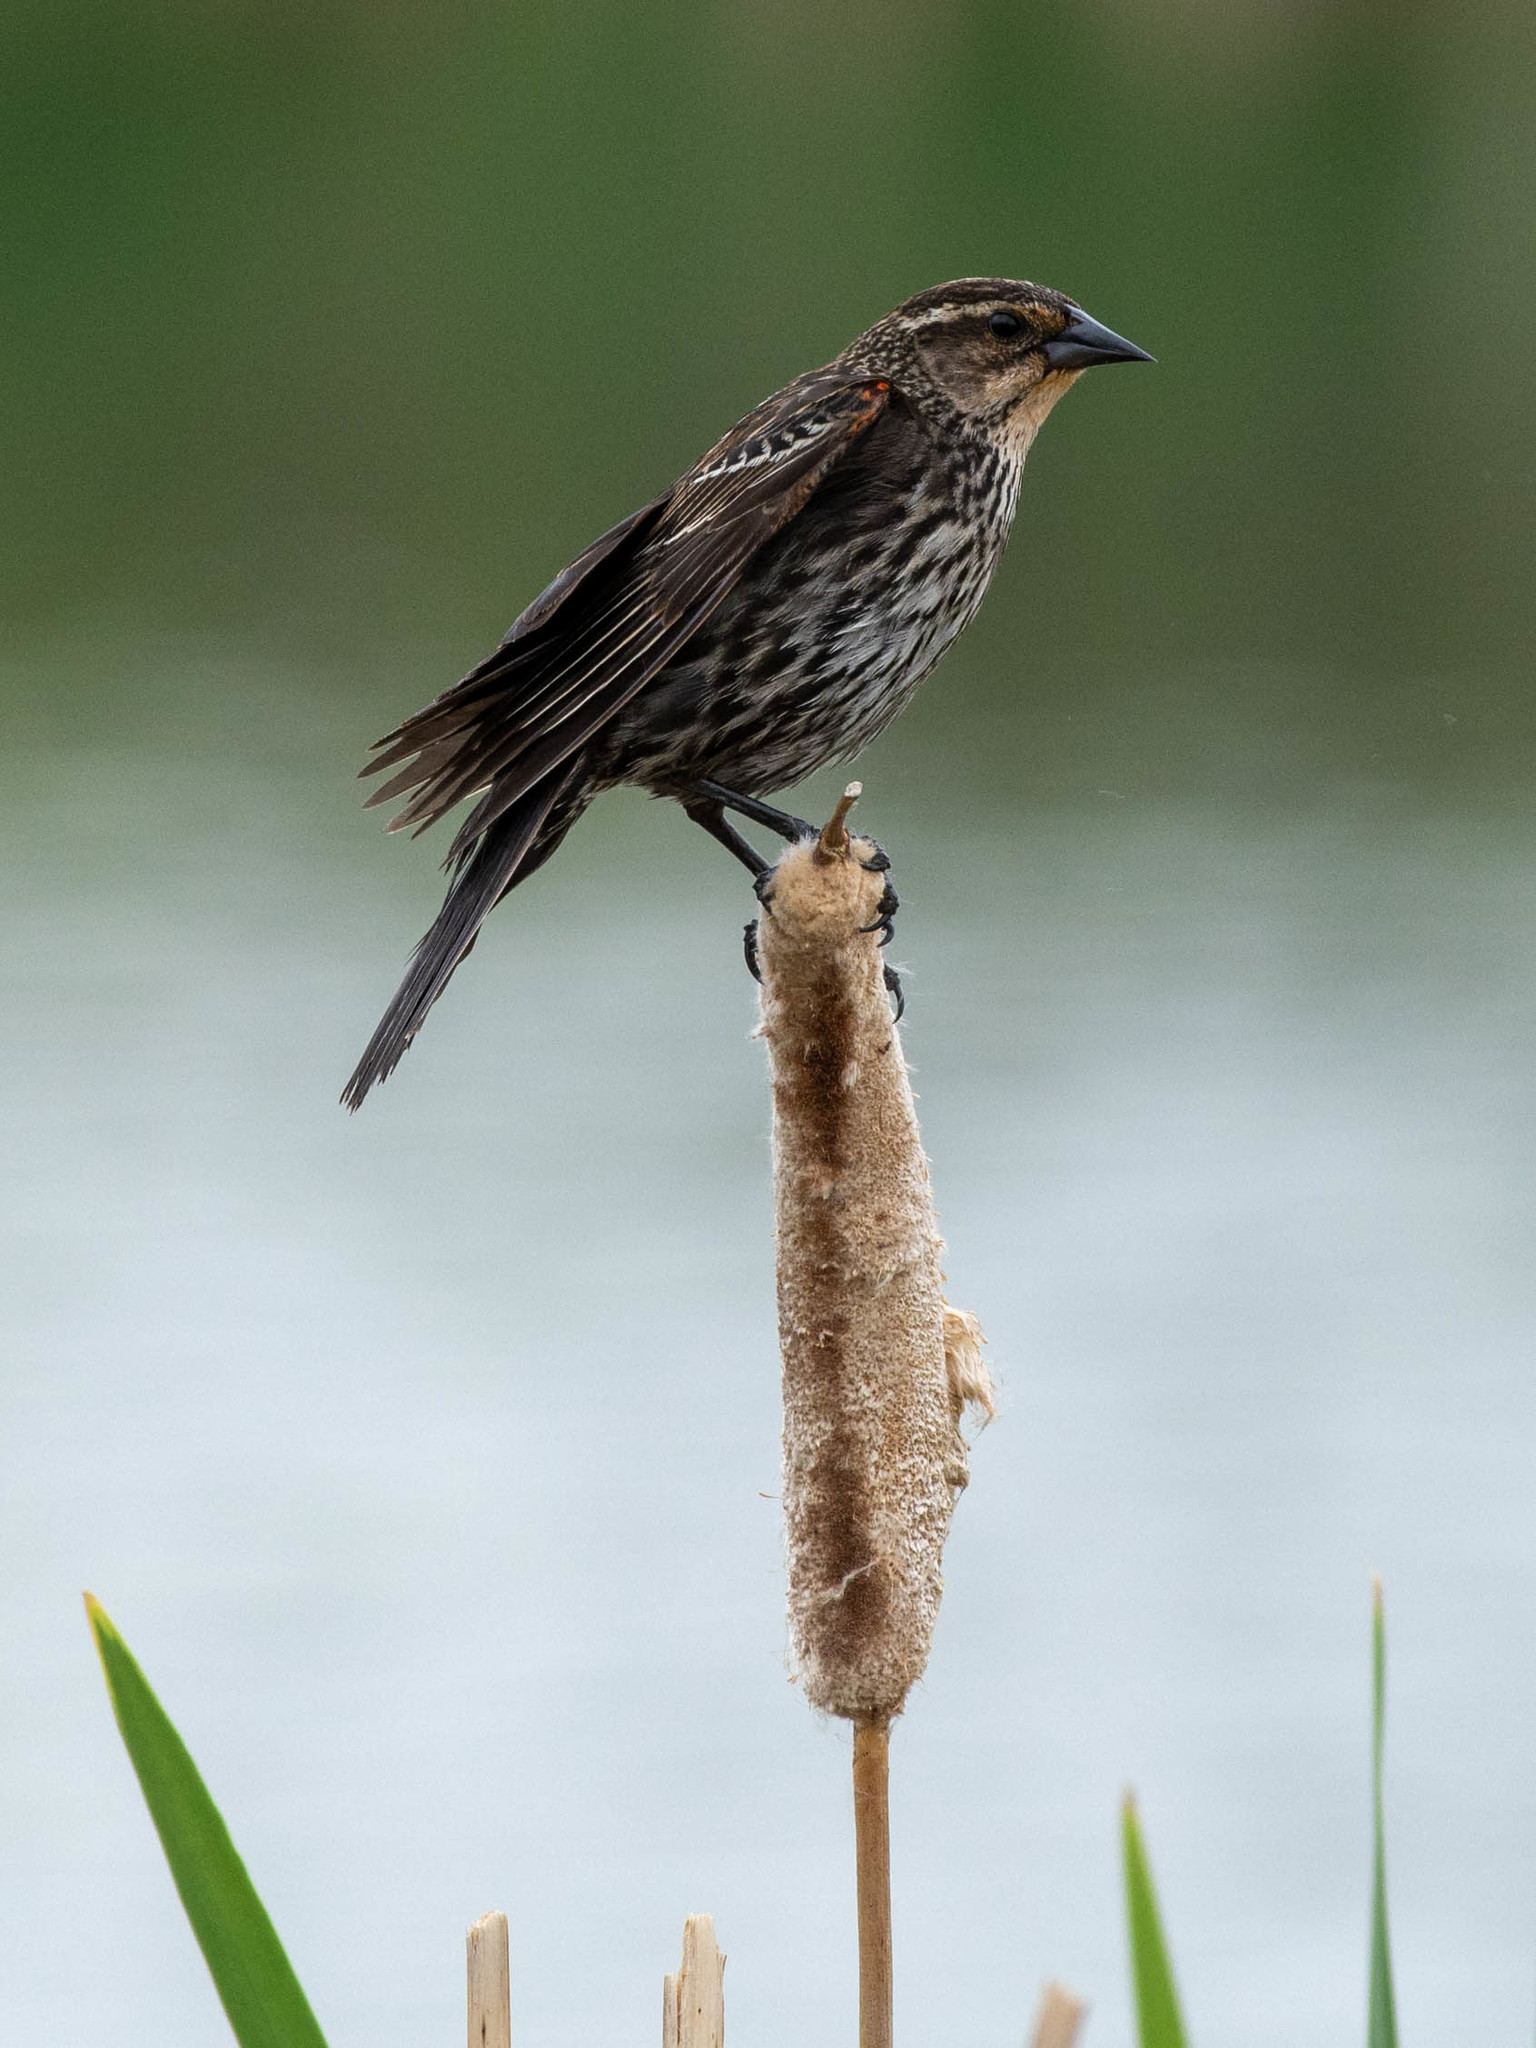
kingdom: Animalia
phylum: Chordata
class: Aves
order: Passeriformes
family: Icteridae
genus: Agelaius
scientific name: Agelaius phoeniceus
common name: Red-winged blackbird
